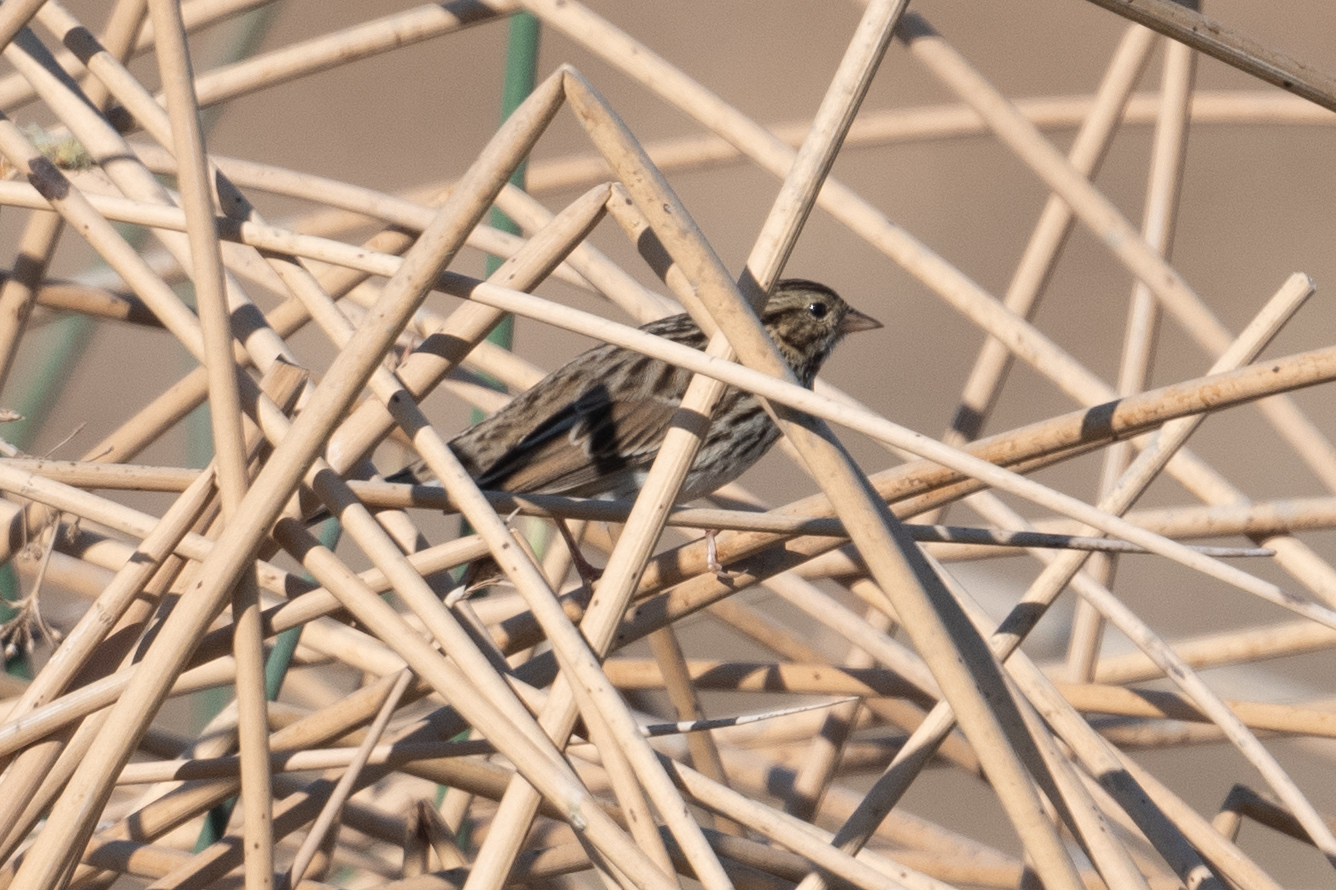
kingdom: Animalia
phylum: Chordata
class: Aves
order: Passeriformes
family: Passerellidae
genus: Passerculus
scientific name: Passerculus sandwichensis
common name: Savannah sparrow
